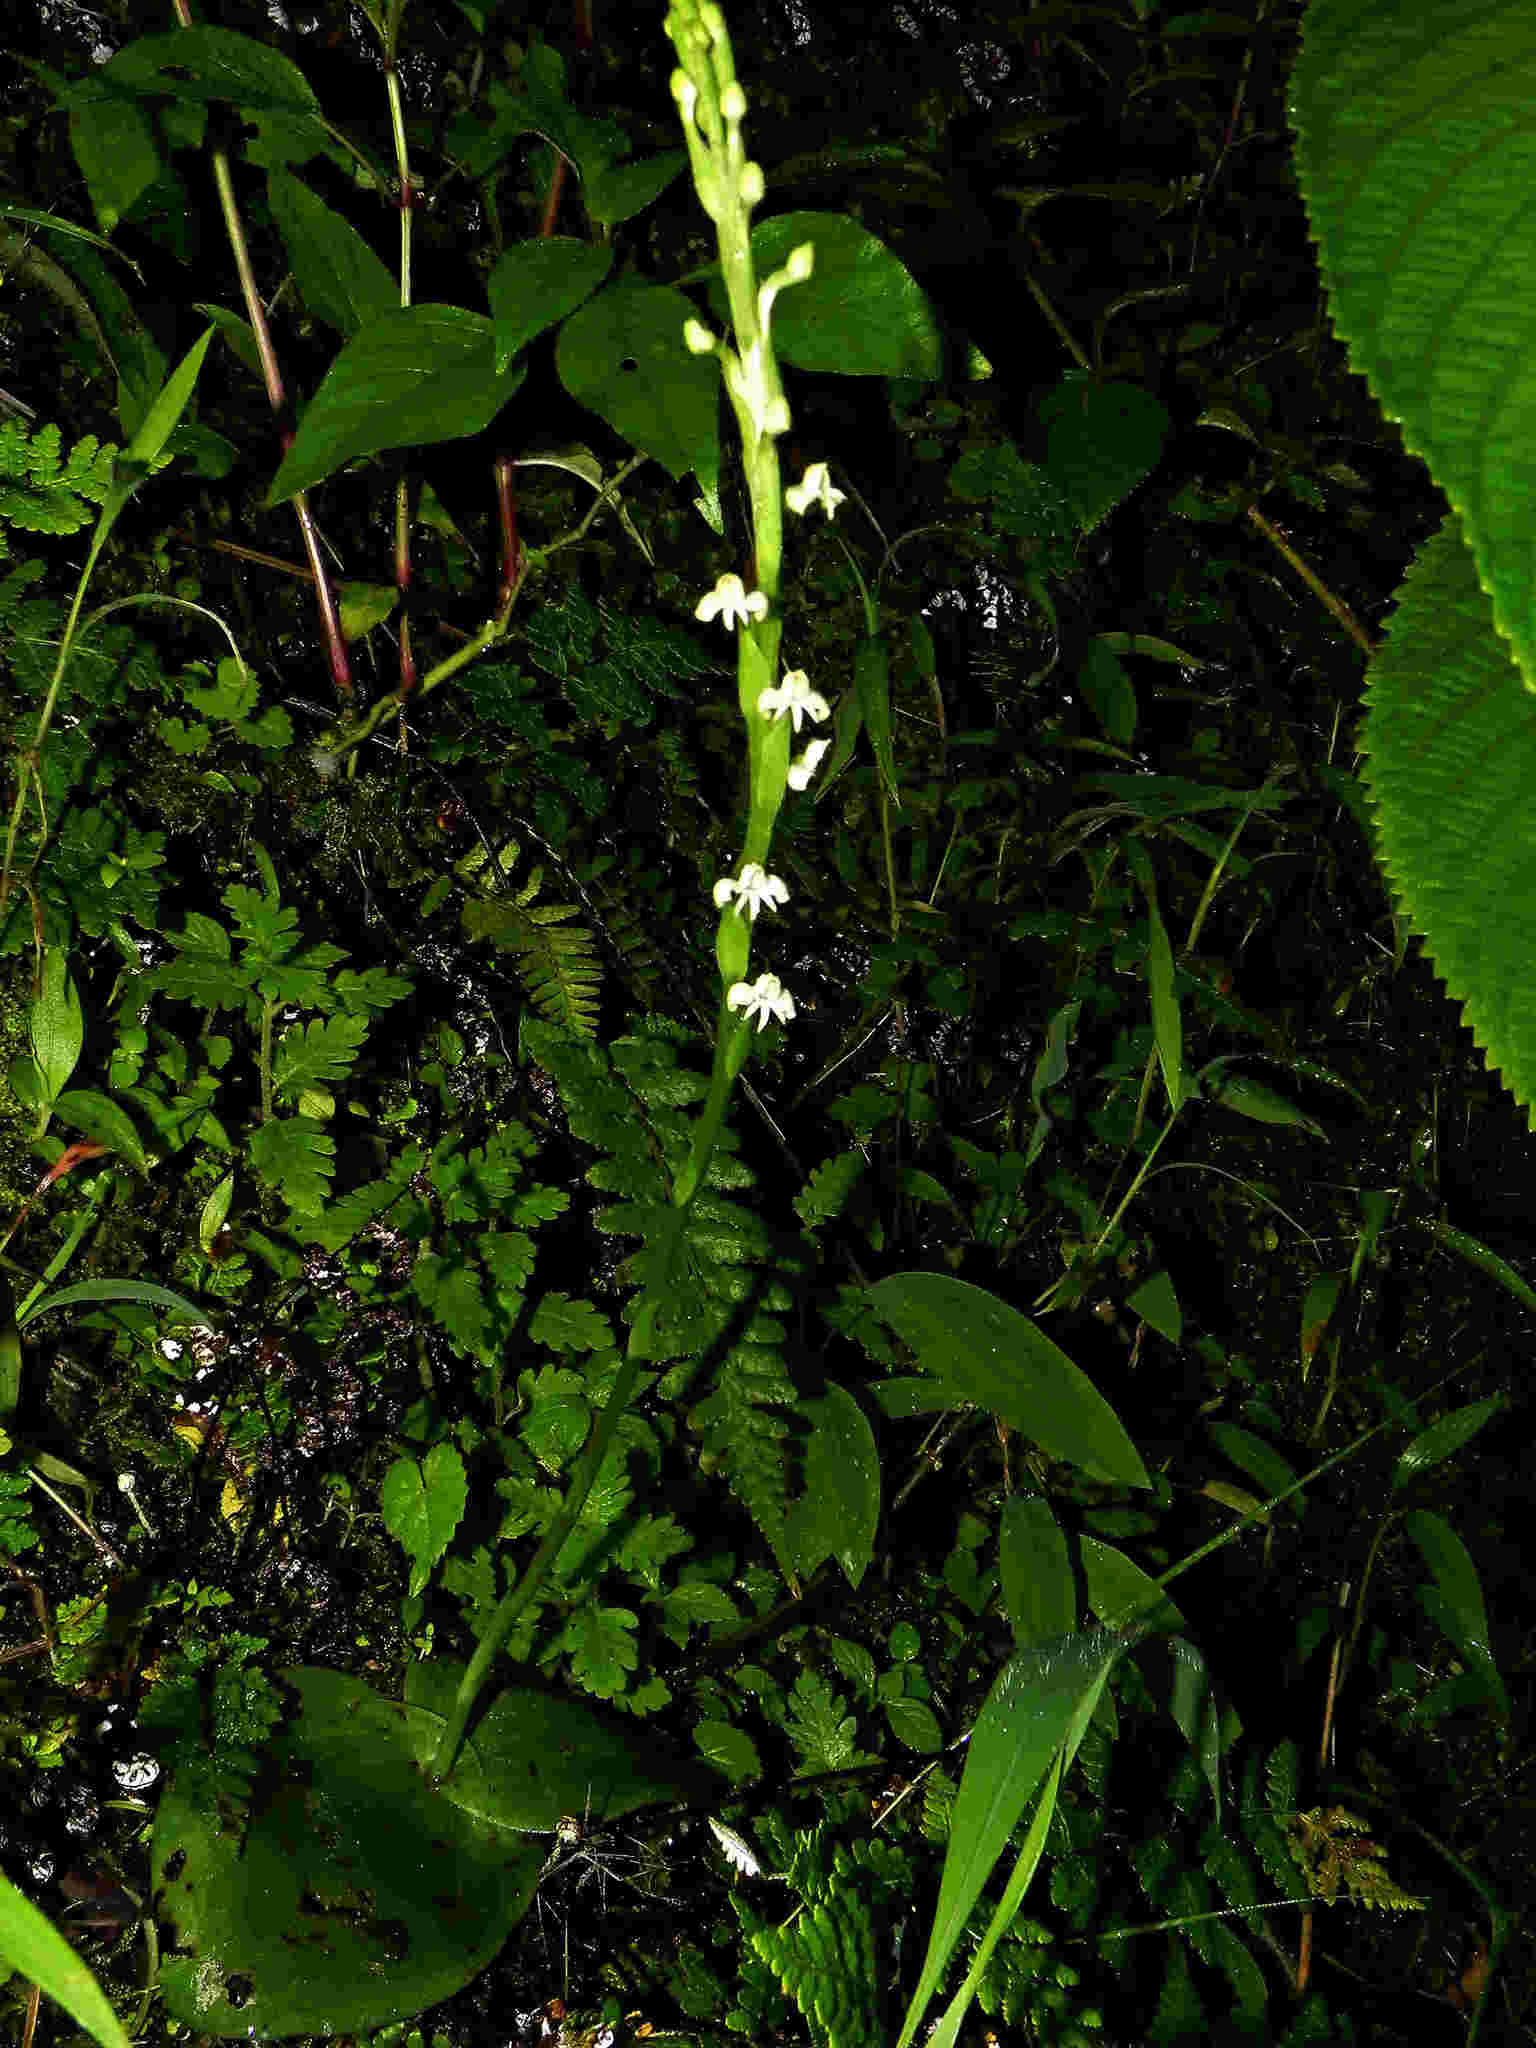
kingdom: Plantae
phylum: Tracheophyta
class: Liliopsida
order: Asparagales
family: Orchidaceae
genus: Habenaria
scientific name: Habenaria brachyphylla
